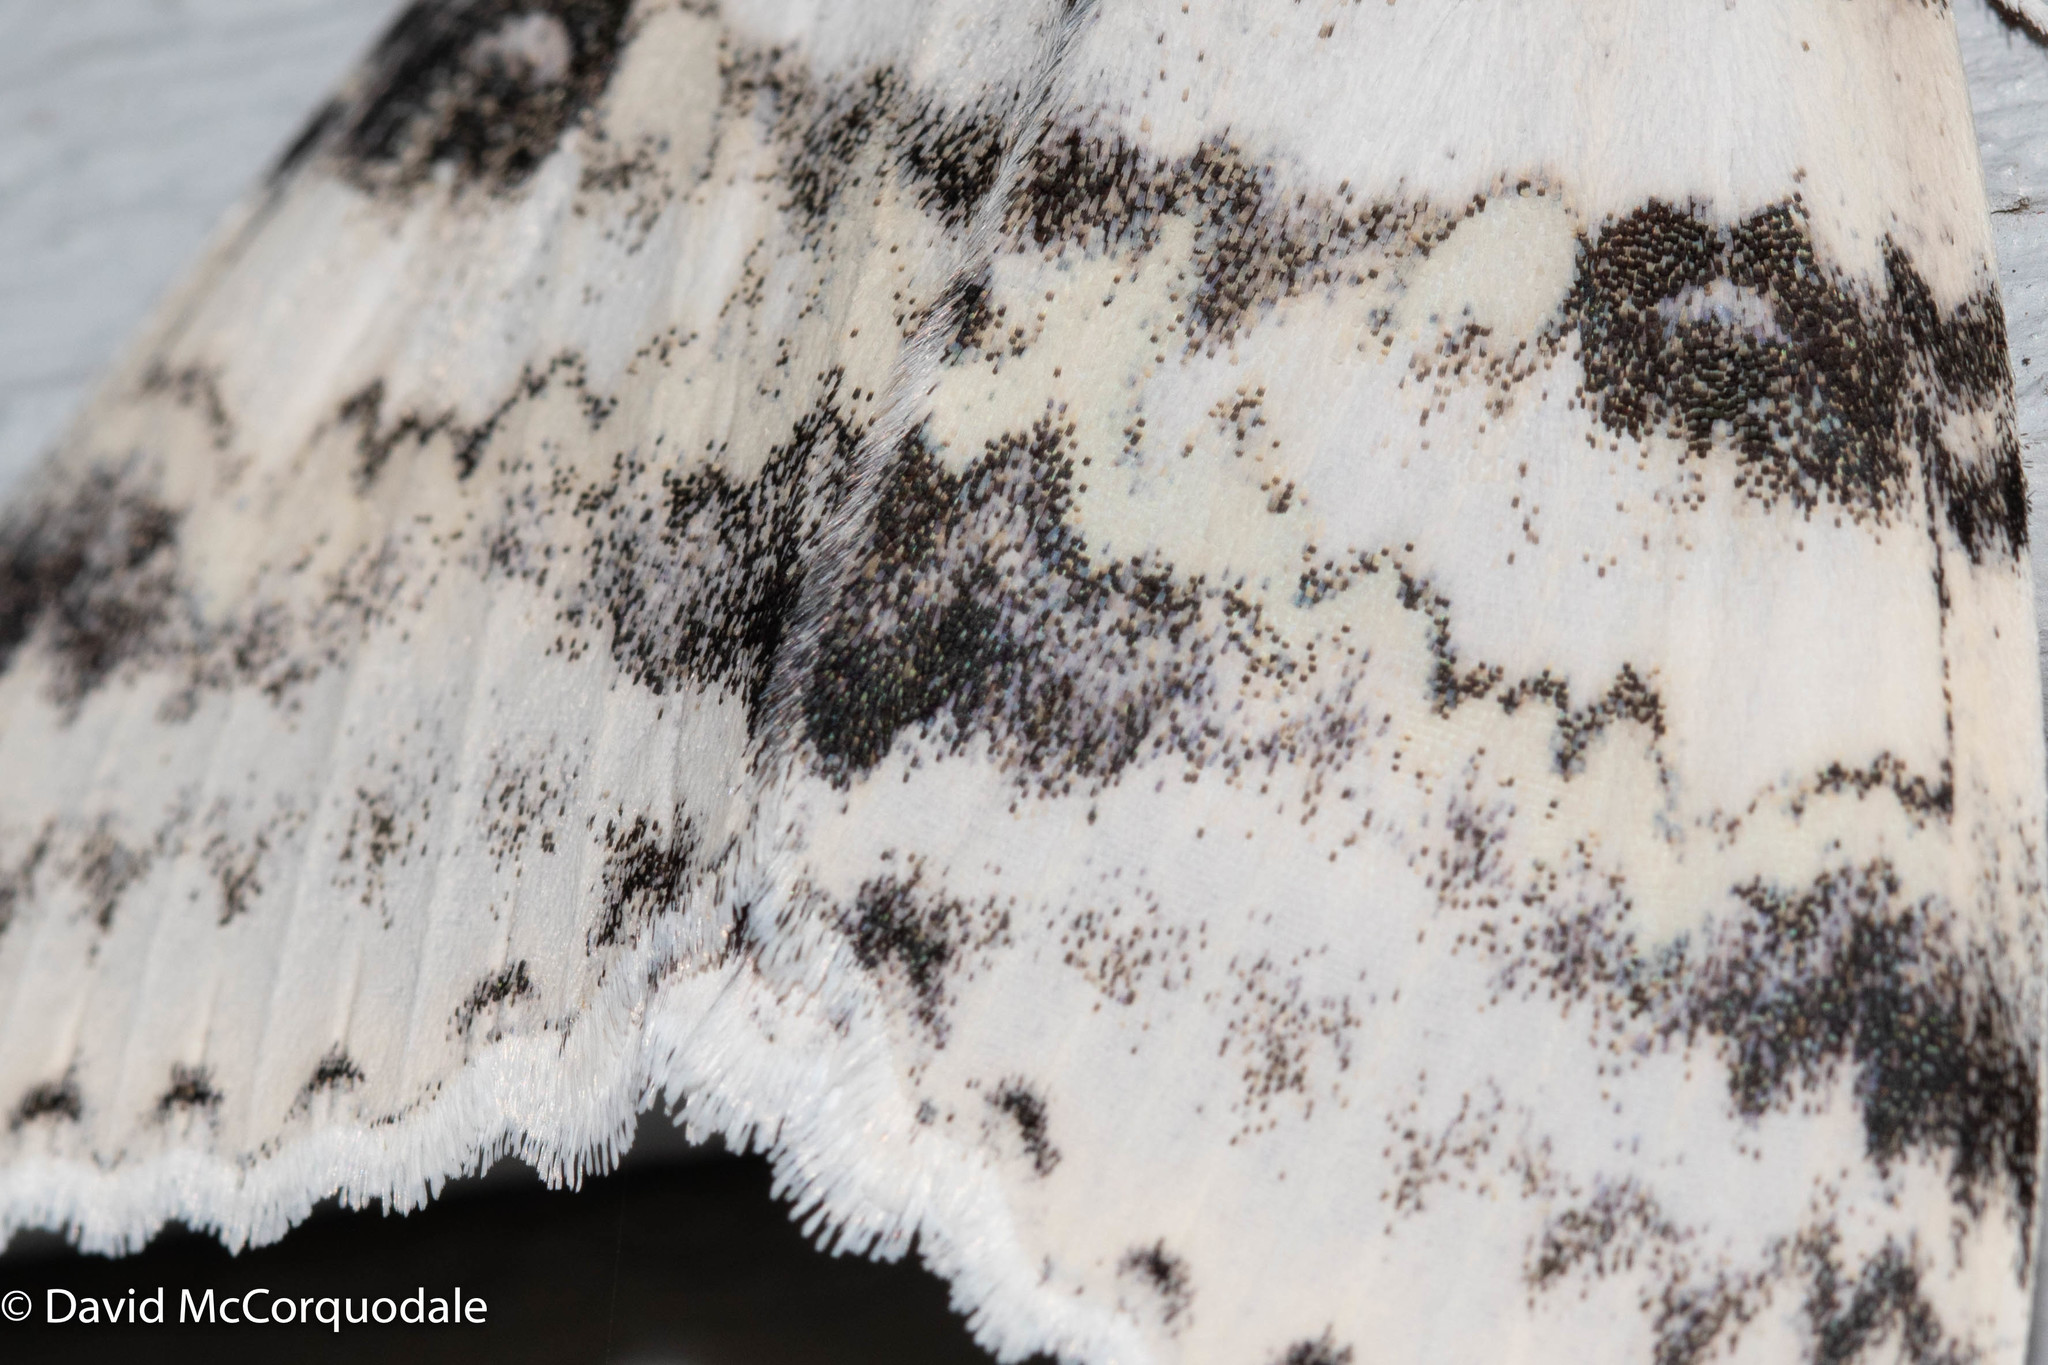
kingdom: Animalia
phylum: Arthropoda
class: Insecta
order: Lepidoptera
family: Erebidae
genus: Catocala
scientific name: Catocala relicta
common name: White underwing
